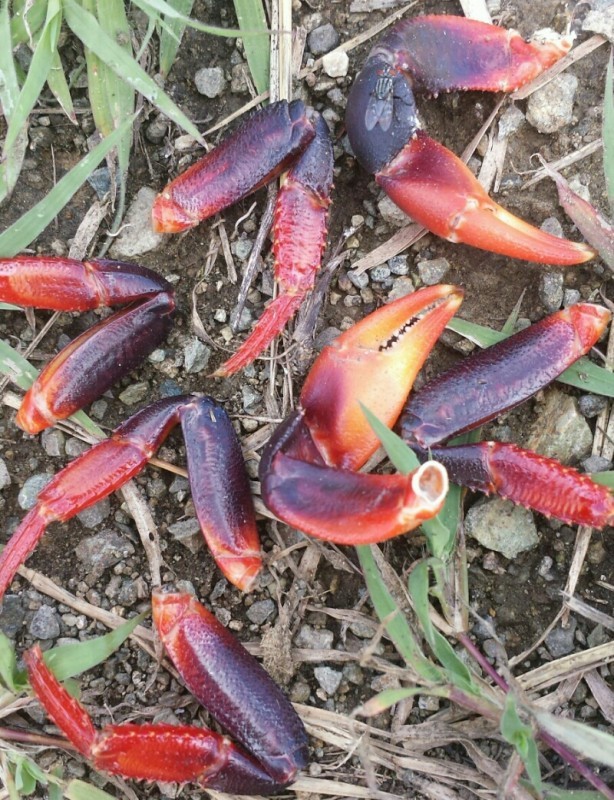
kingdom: Animalia
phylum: Arthropoda
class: Malacostraca
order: Decapoda
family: Gecarcinidae
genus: Gecarcinus
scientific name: Gecarcinus ruricola
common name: Black land crab
